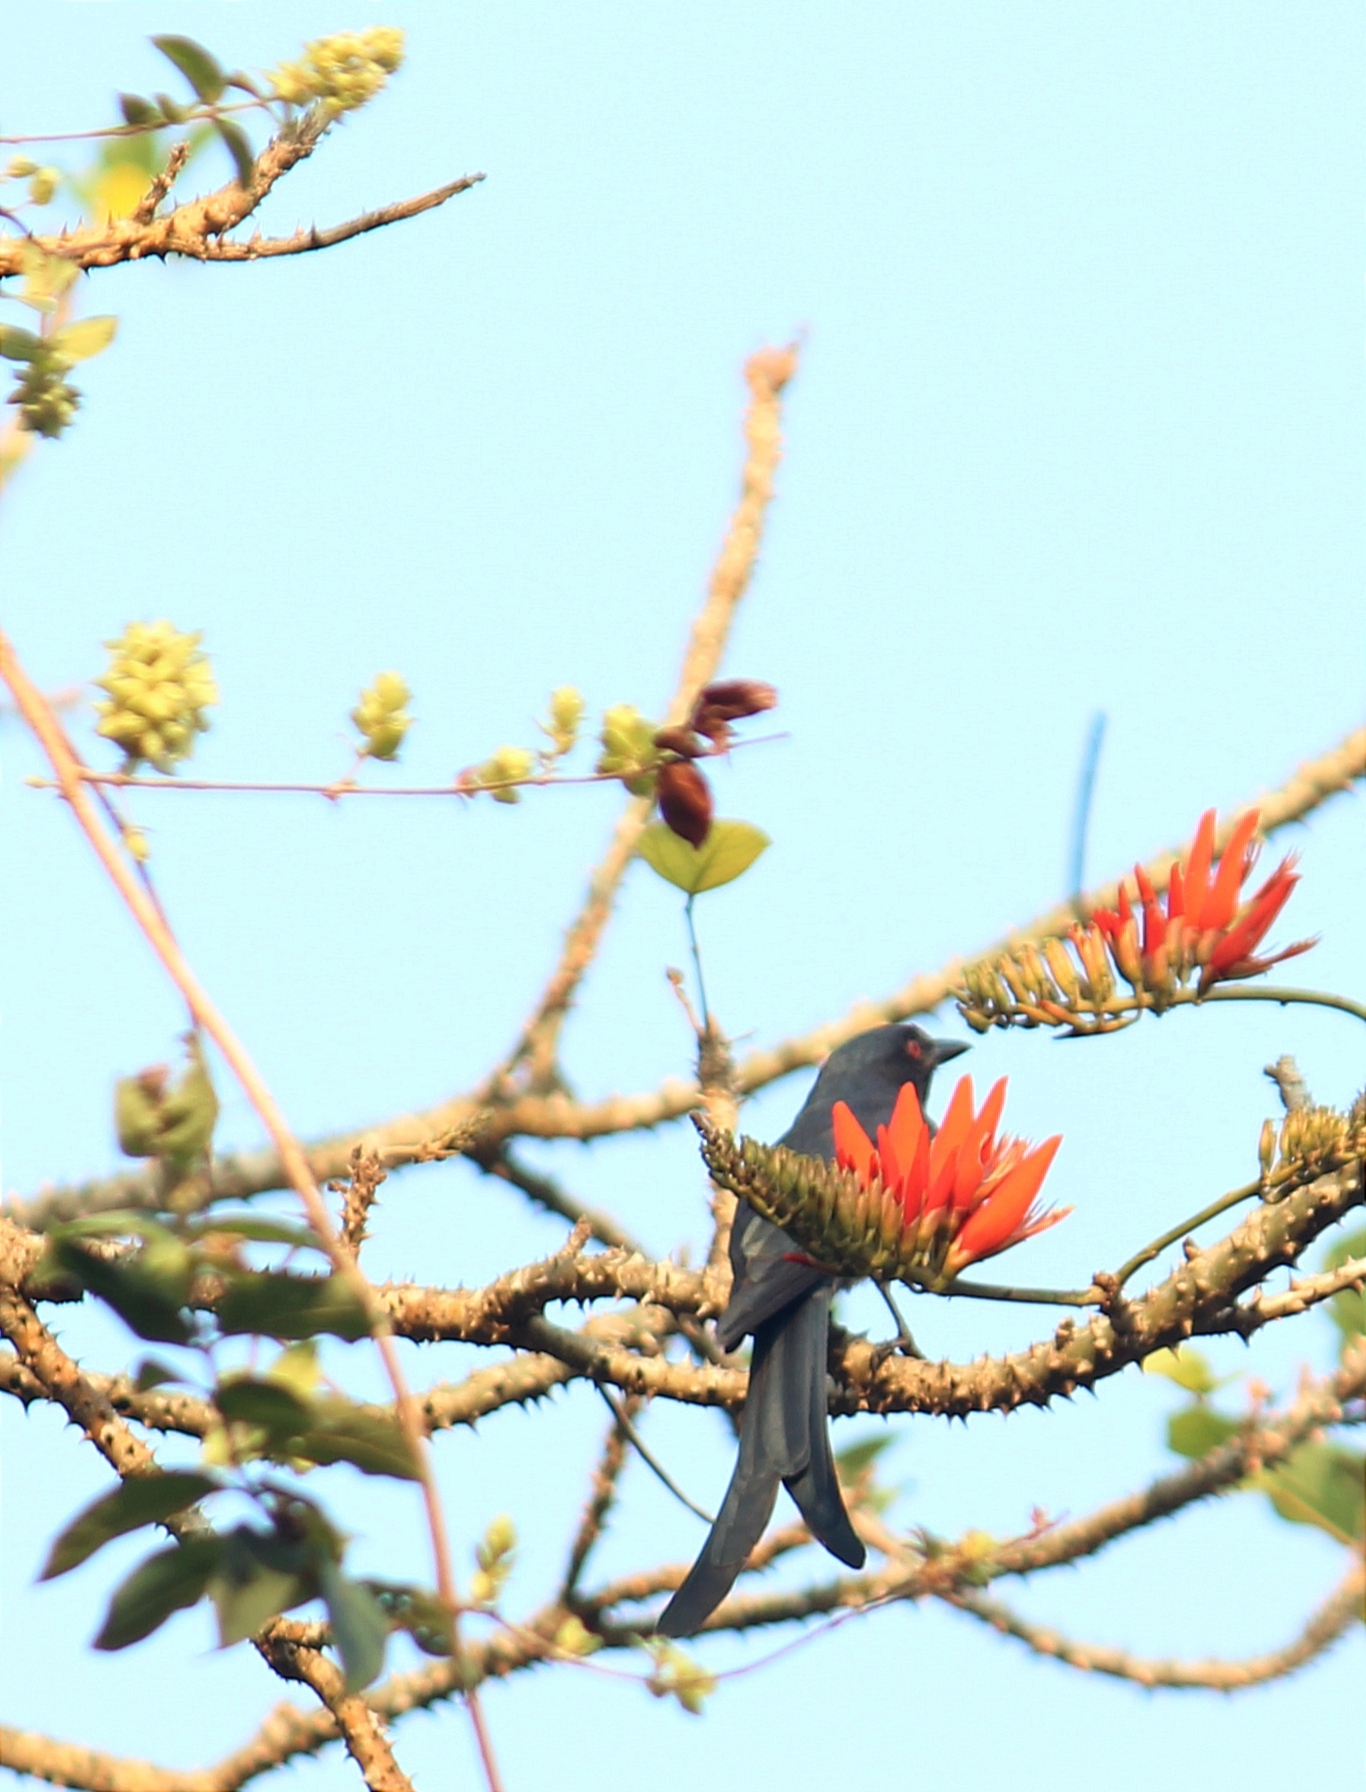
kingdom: Animalia
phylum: Chordata
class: Aves
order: Passeriformes
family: Dicruridae
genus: Dicrurus
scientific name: Dicrurus leucophaeus
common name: Ashy drongo
